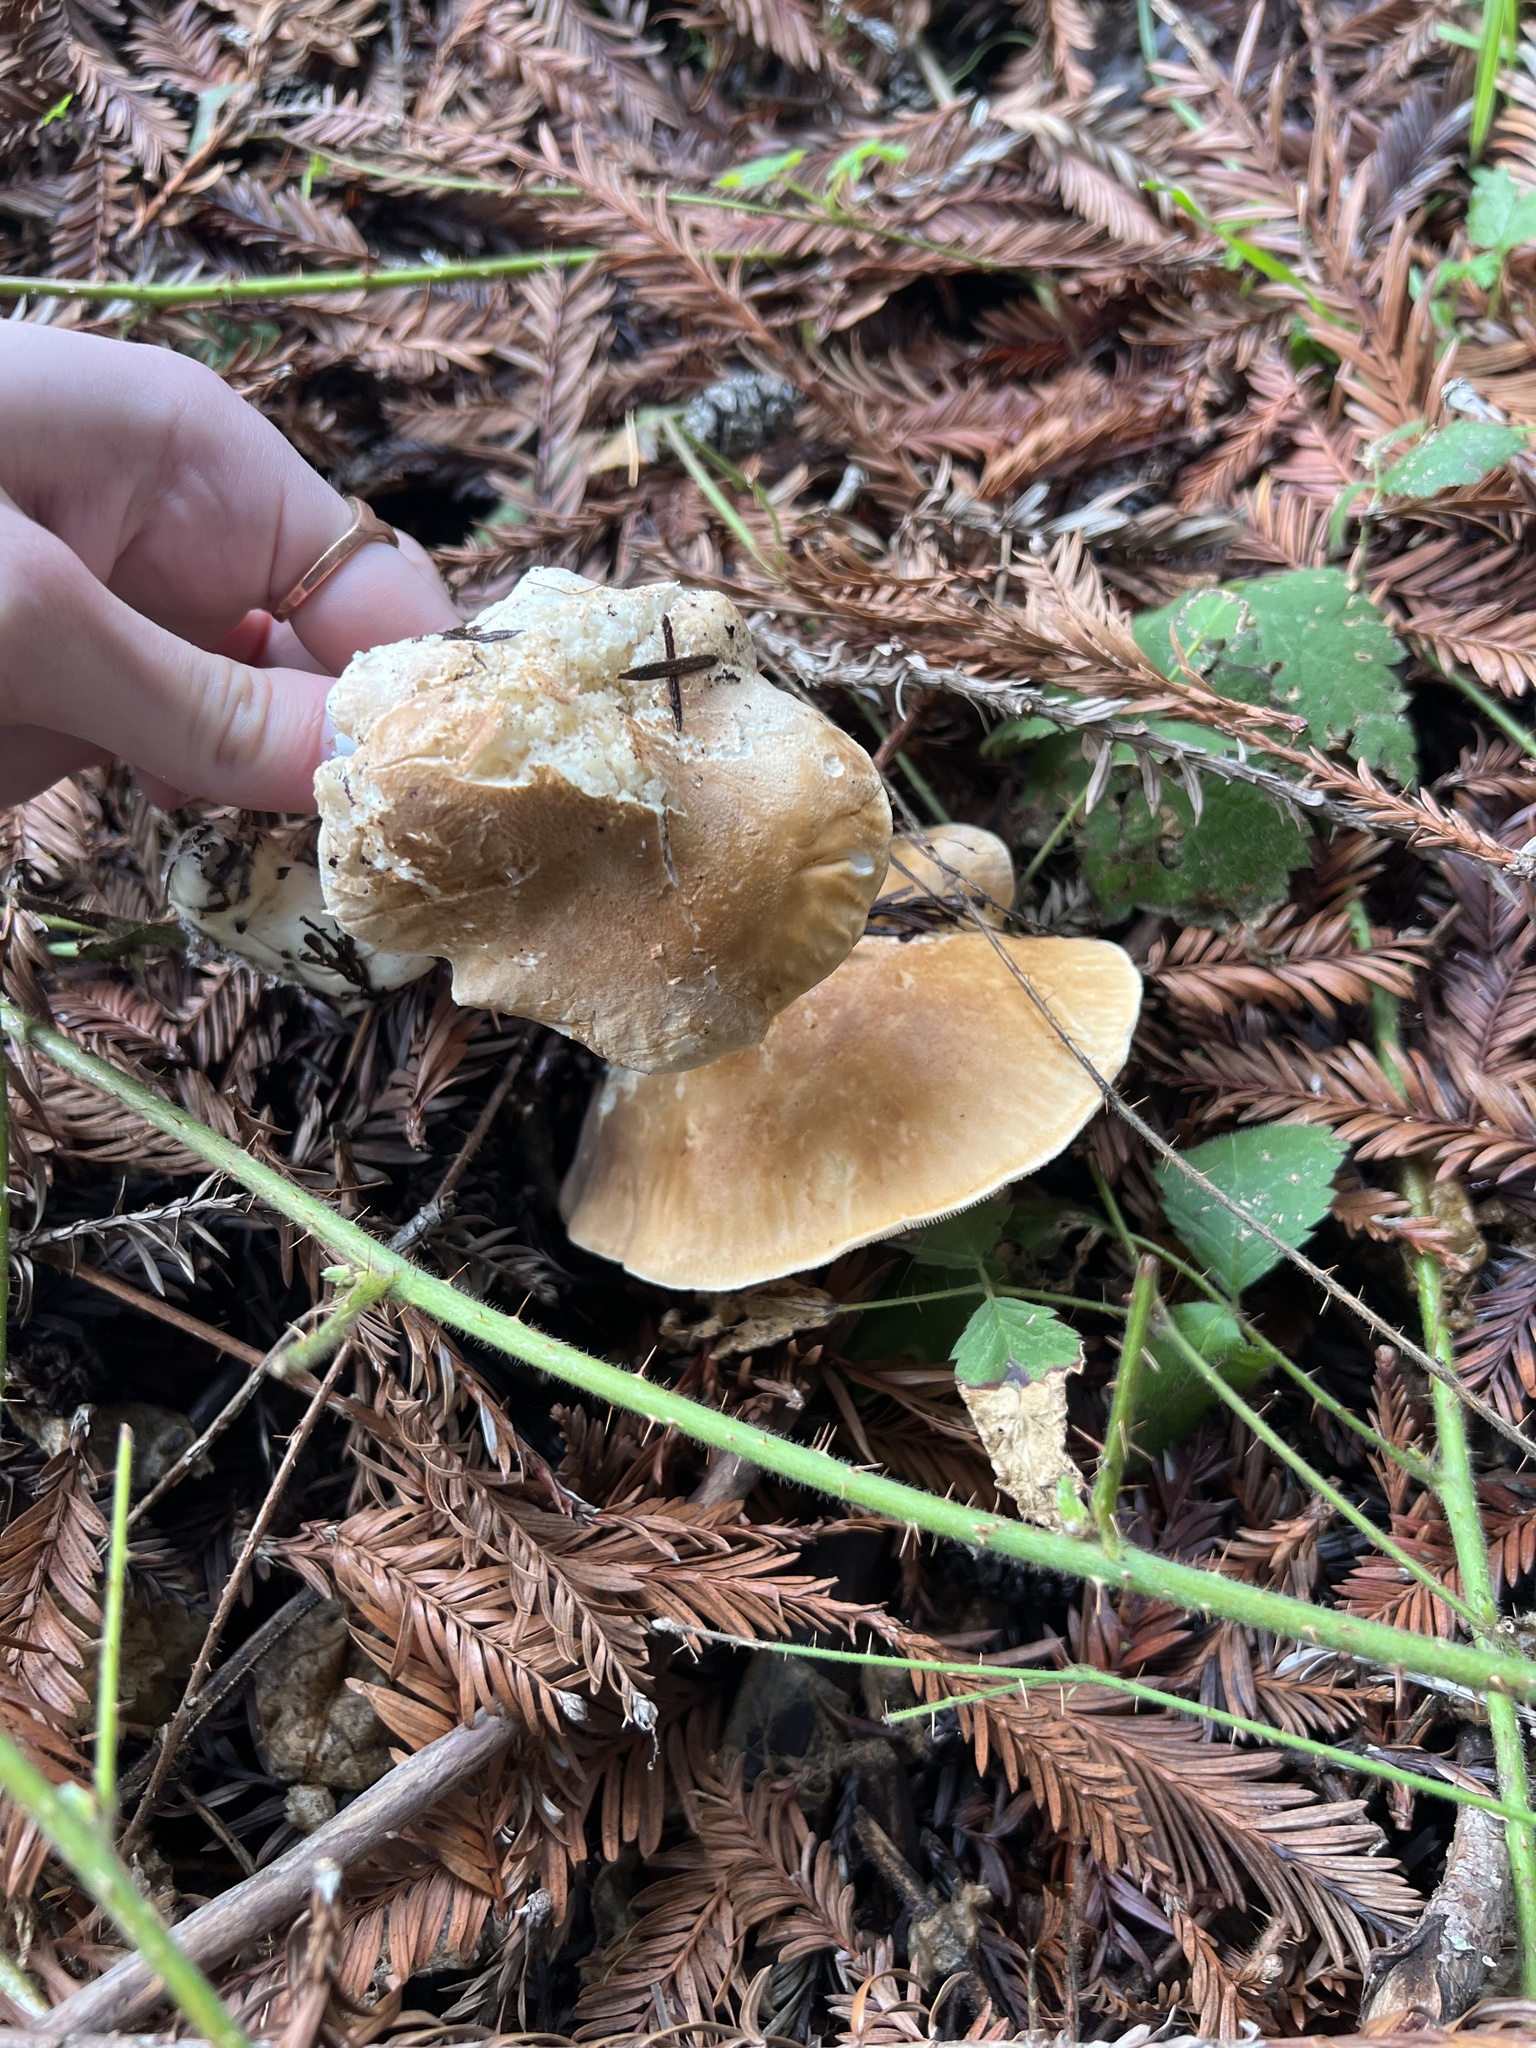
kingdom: Fungi
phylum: Basidiomycota
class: Agaricomycetes
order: Agaricales
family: Tricholomataceae
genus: Leucopaxillus
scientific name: Leucopaxillus gentianeus
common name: Bitter funnel
